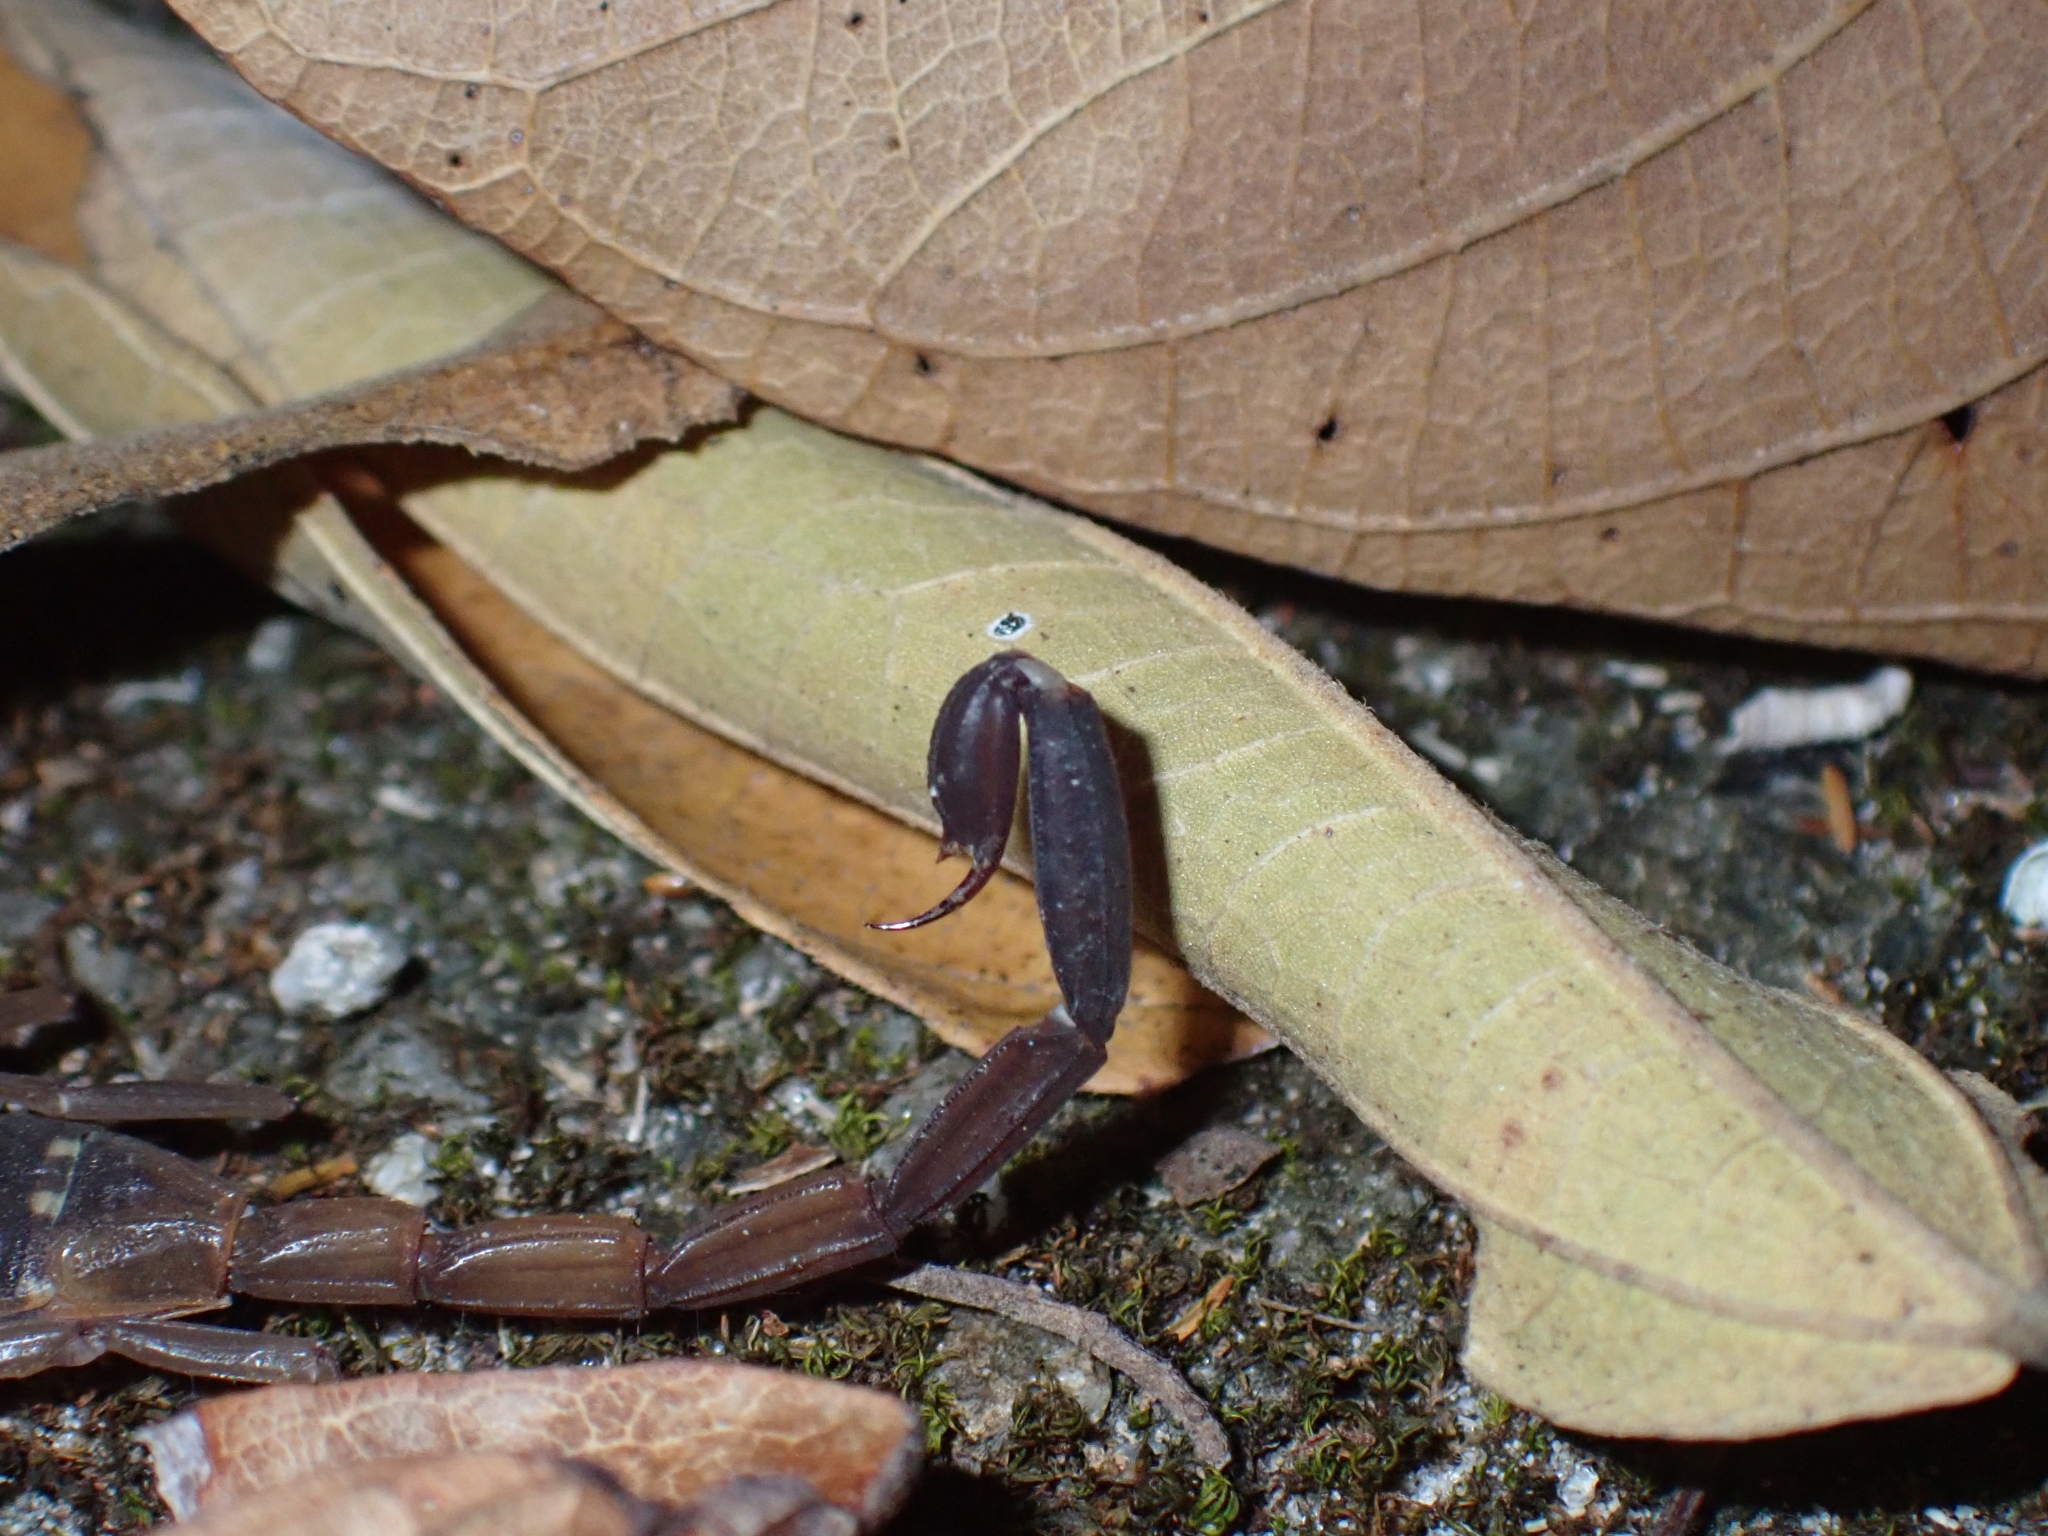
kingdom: Animalia
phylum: Arthropoda
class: Arachnida
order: Scorpiones
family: Buthidae
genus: Lychas
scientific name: Lychas scutilus
